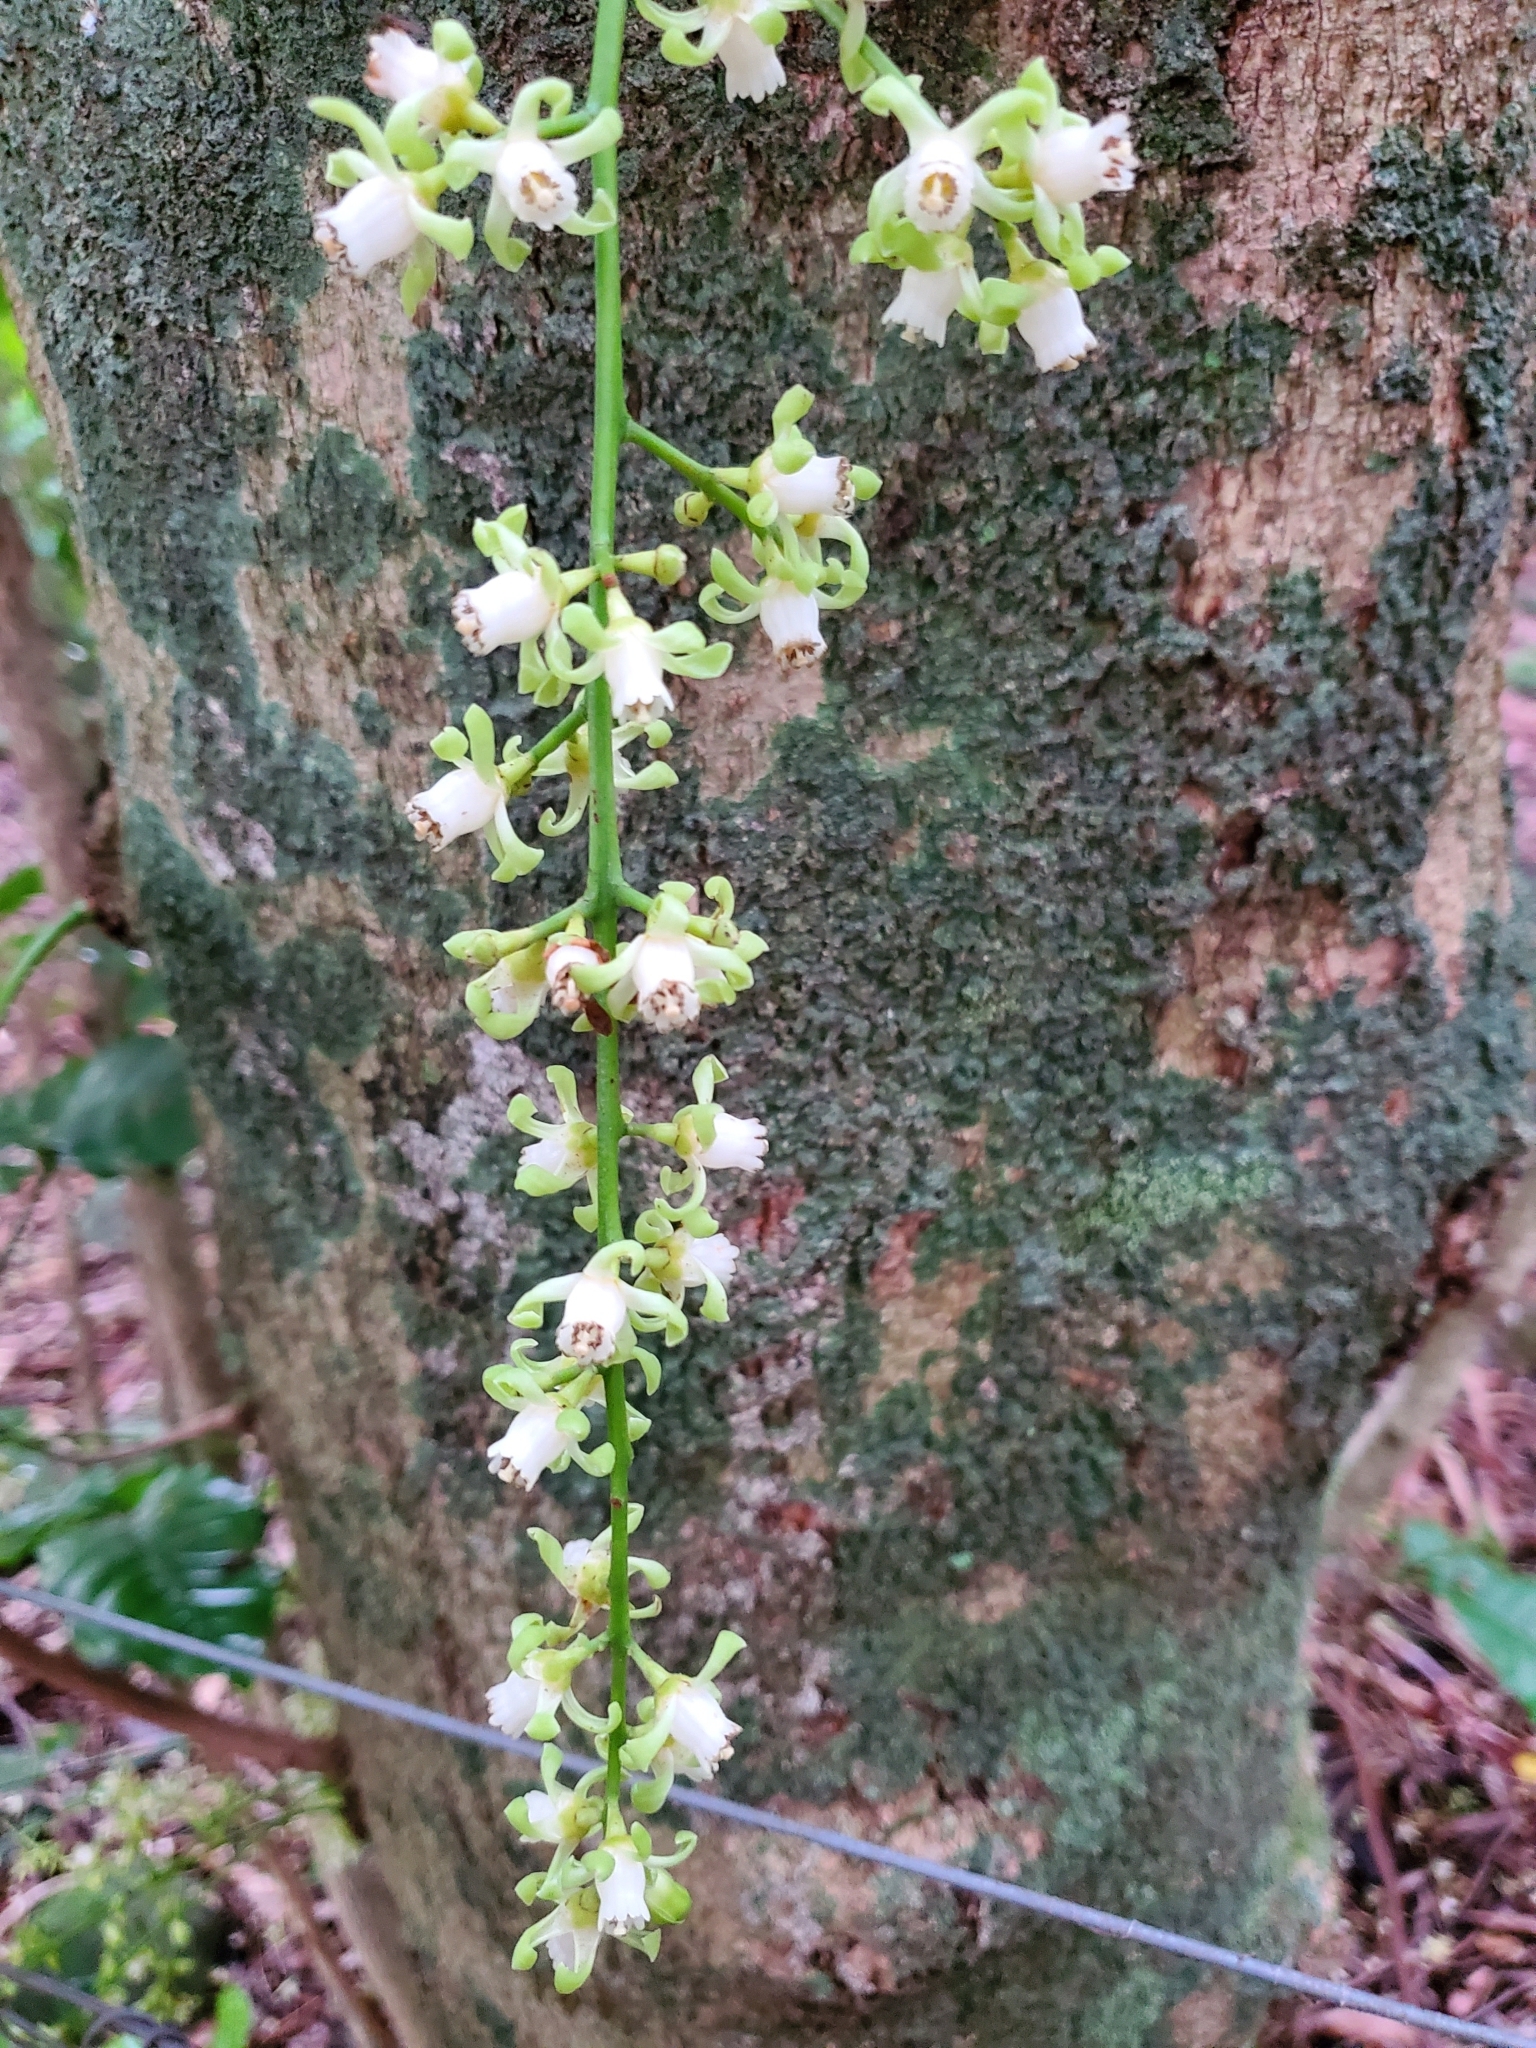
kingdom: Plantae
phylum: Tracheophyta
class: Magnoliopsida
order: Sapindales
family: Meliaceae
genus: Didymocheton
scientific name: Didymocheton spectabilis
